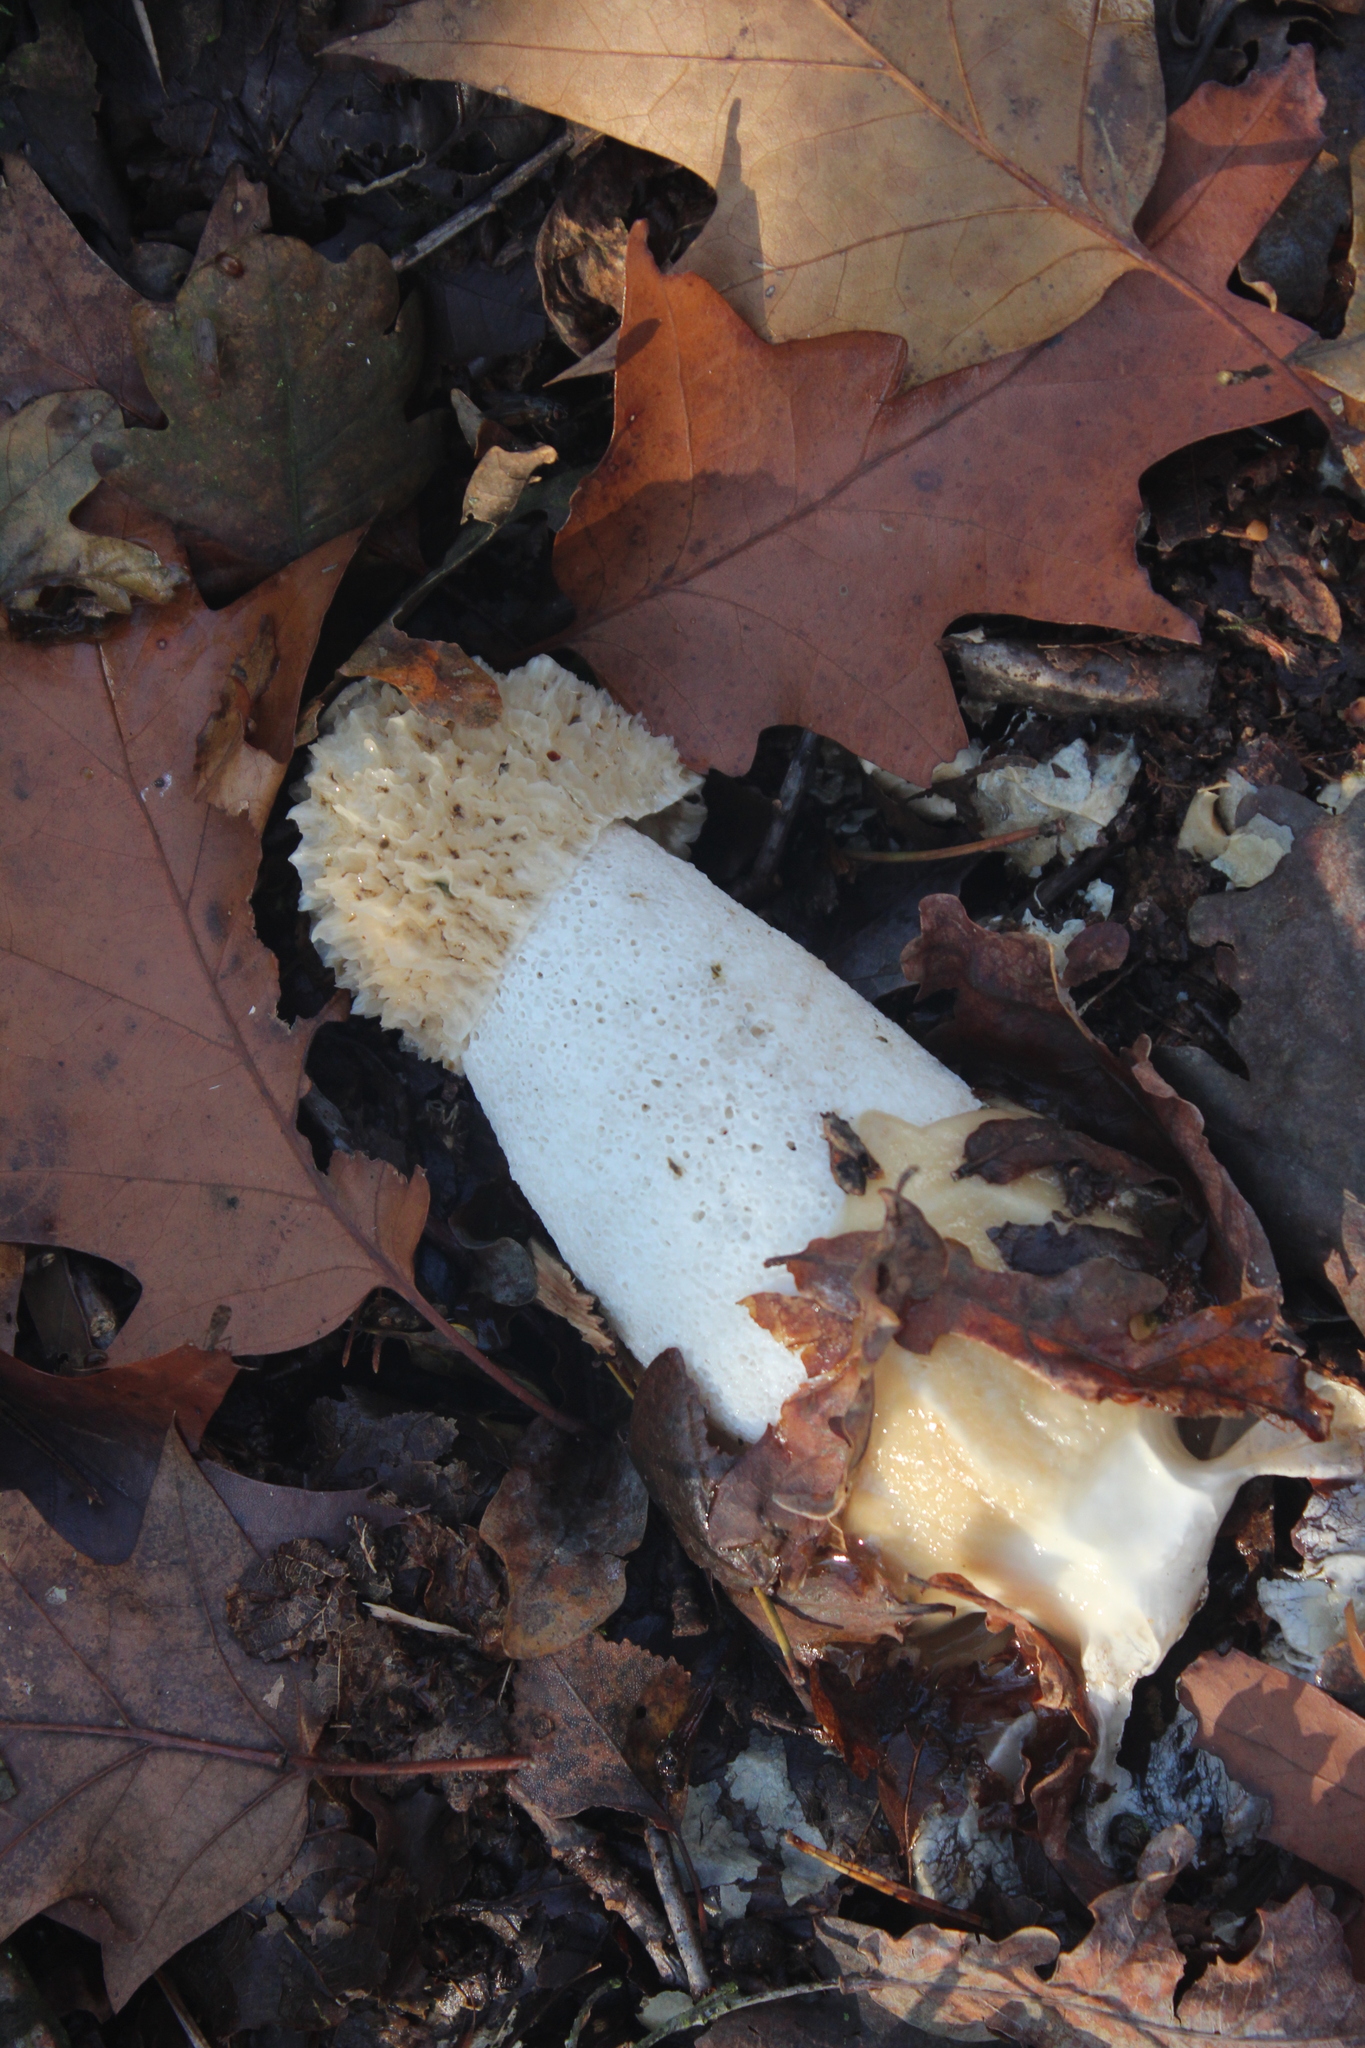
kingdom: Fungi
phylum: Basidiomycota
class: Agaricomycetes
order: Phallales
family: Phallaceae
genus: Phallus
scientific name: Phallus impudicus
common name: Common stinkhorn
